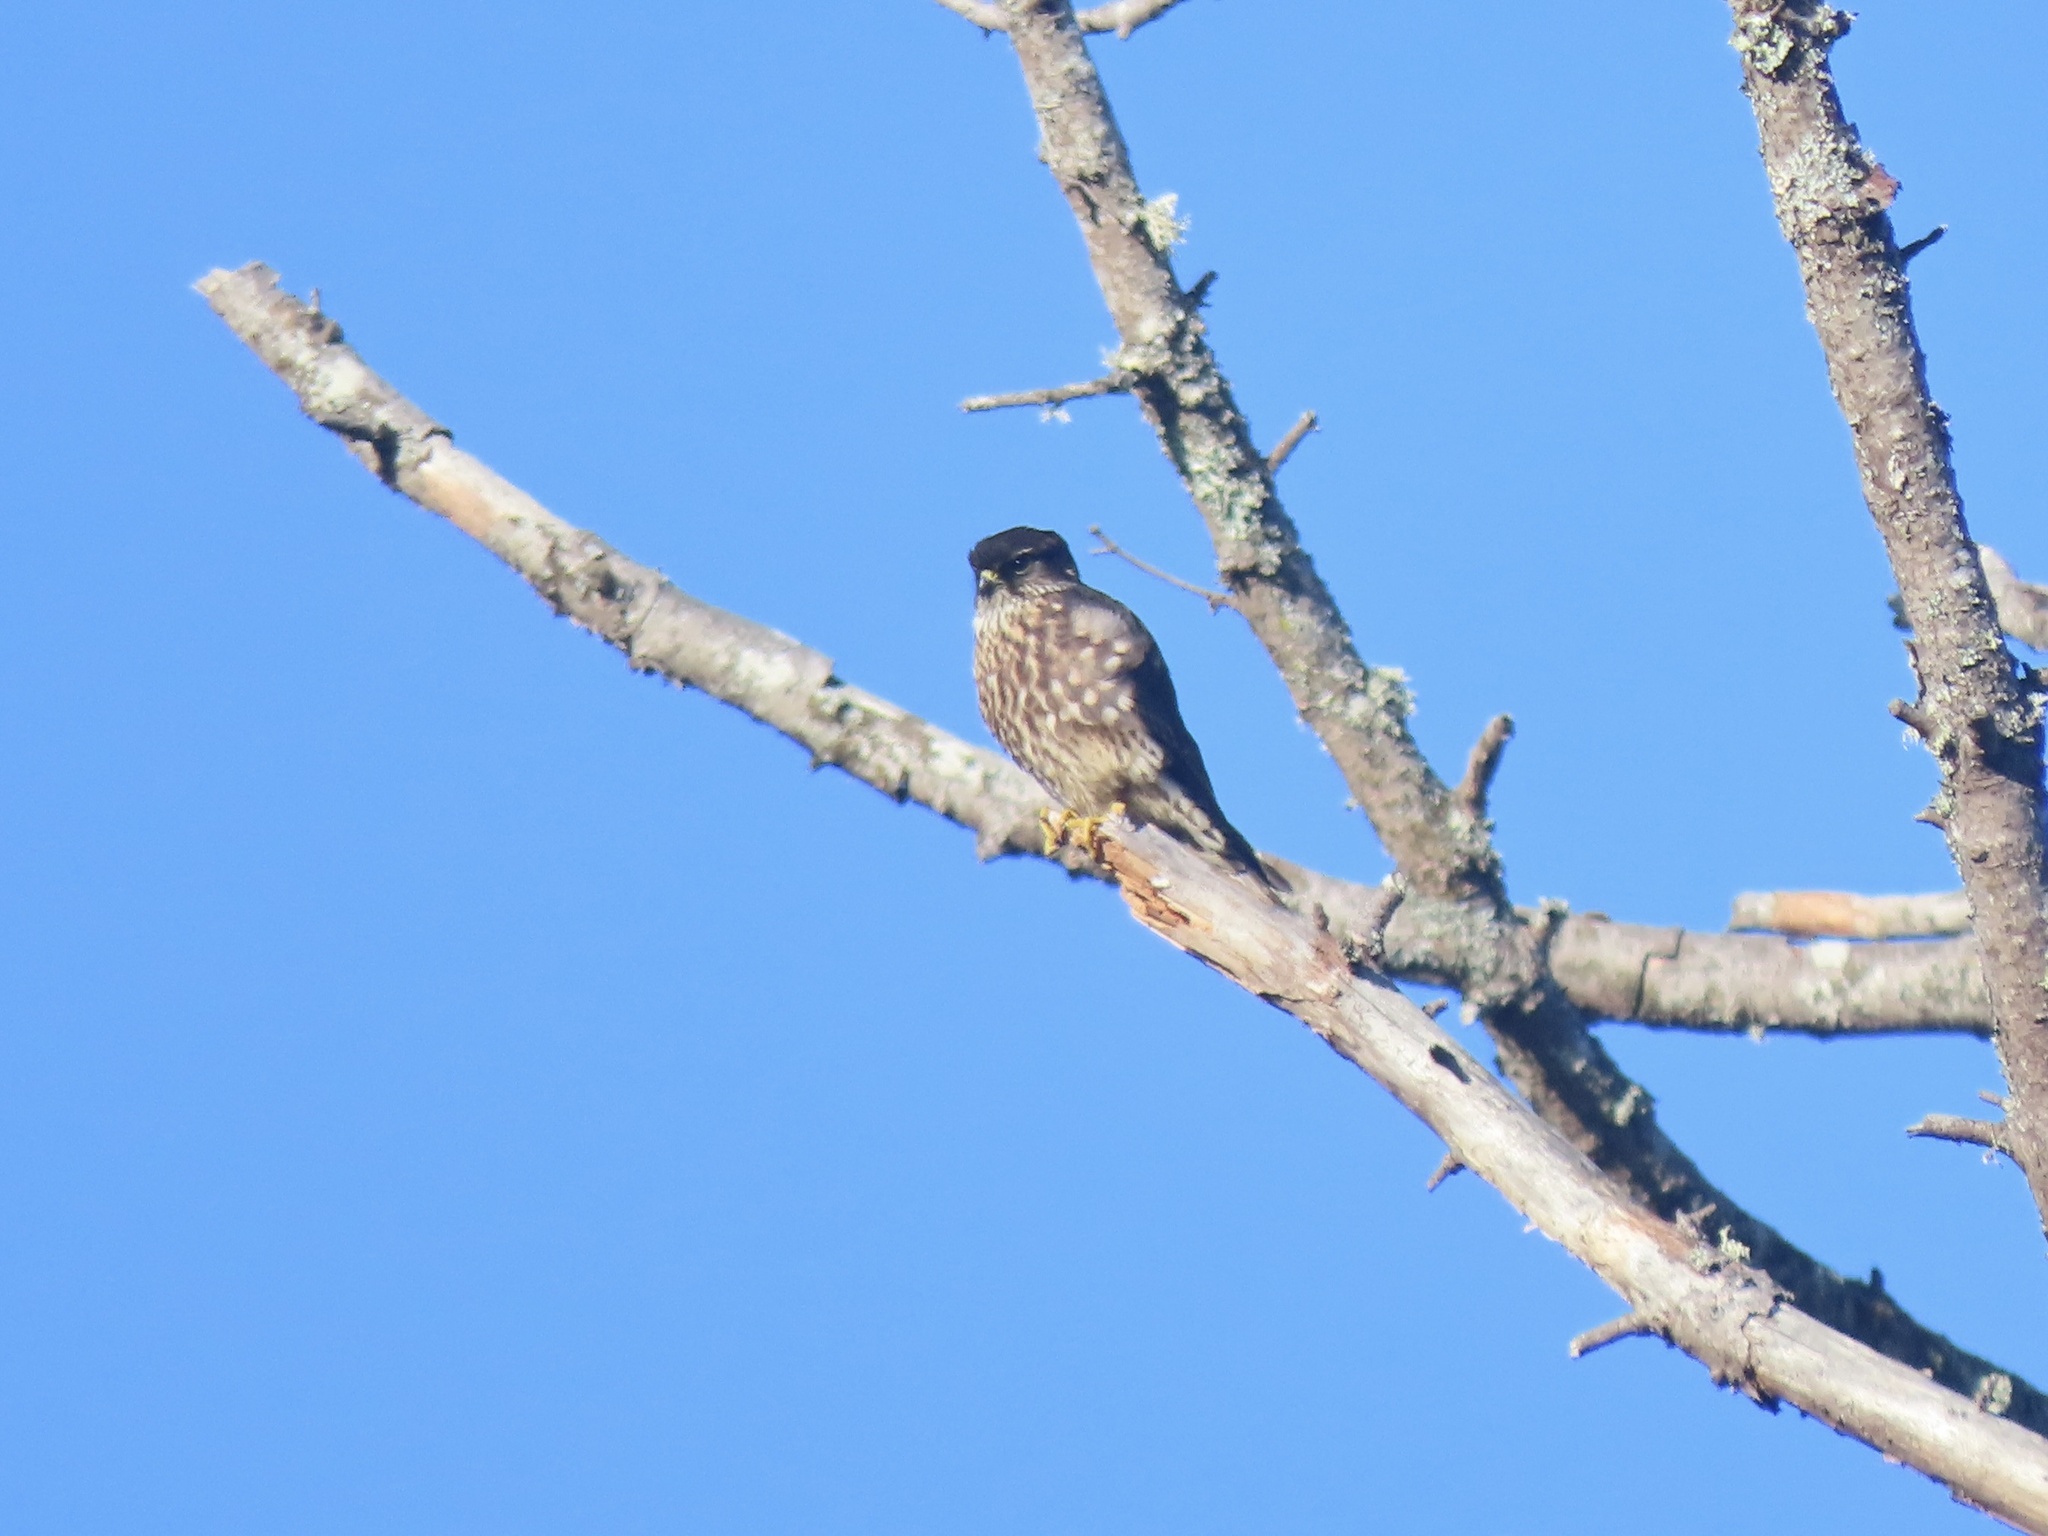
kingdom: Animalia
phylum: Chordata
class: Aves
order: Falconiformes
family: Falconidae
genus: Falco
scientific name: Falco columbarius
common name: Merlin
